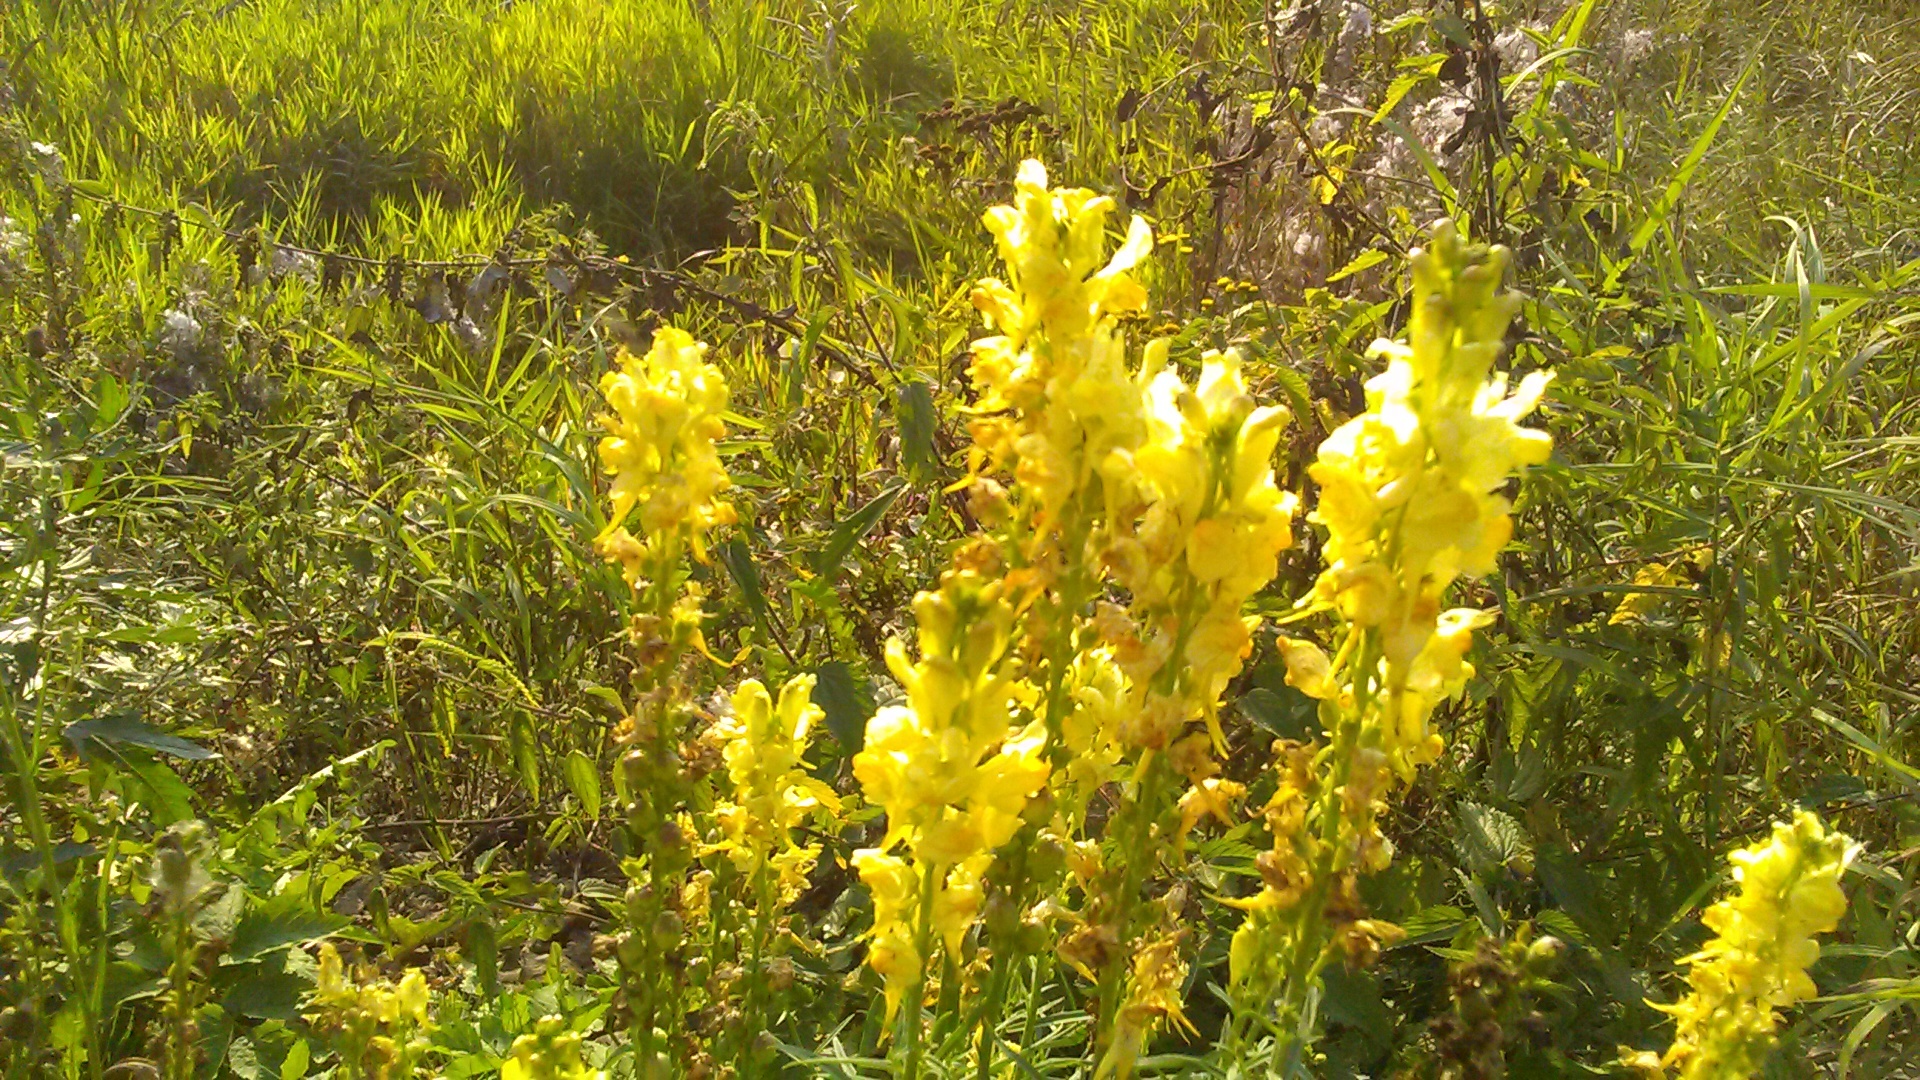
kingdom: Plantae
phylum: Tracheophyta
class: Magnoliopsida
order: Lamiales
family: Plantaginaceae
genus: Linaria
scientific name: Linaria vulgaris
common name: Butter and eggs
